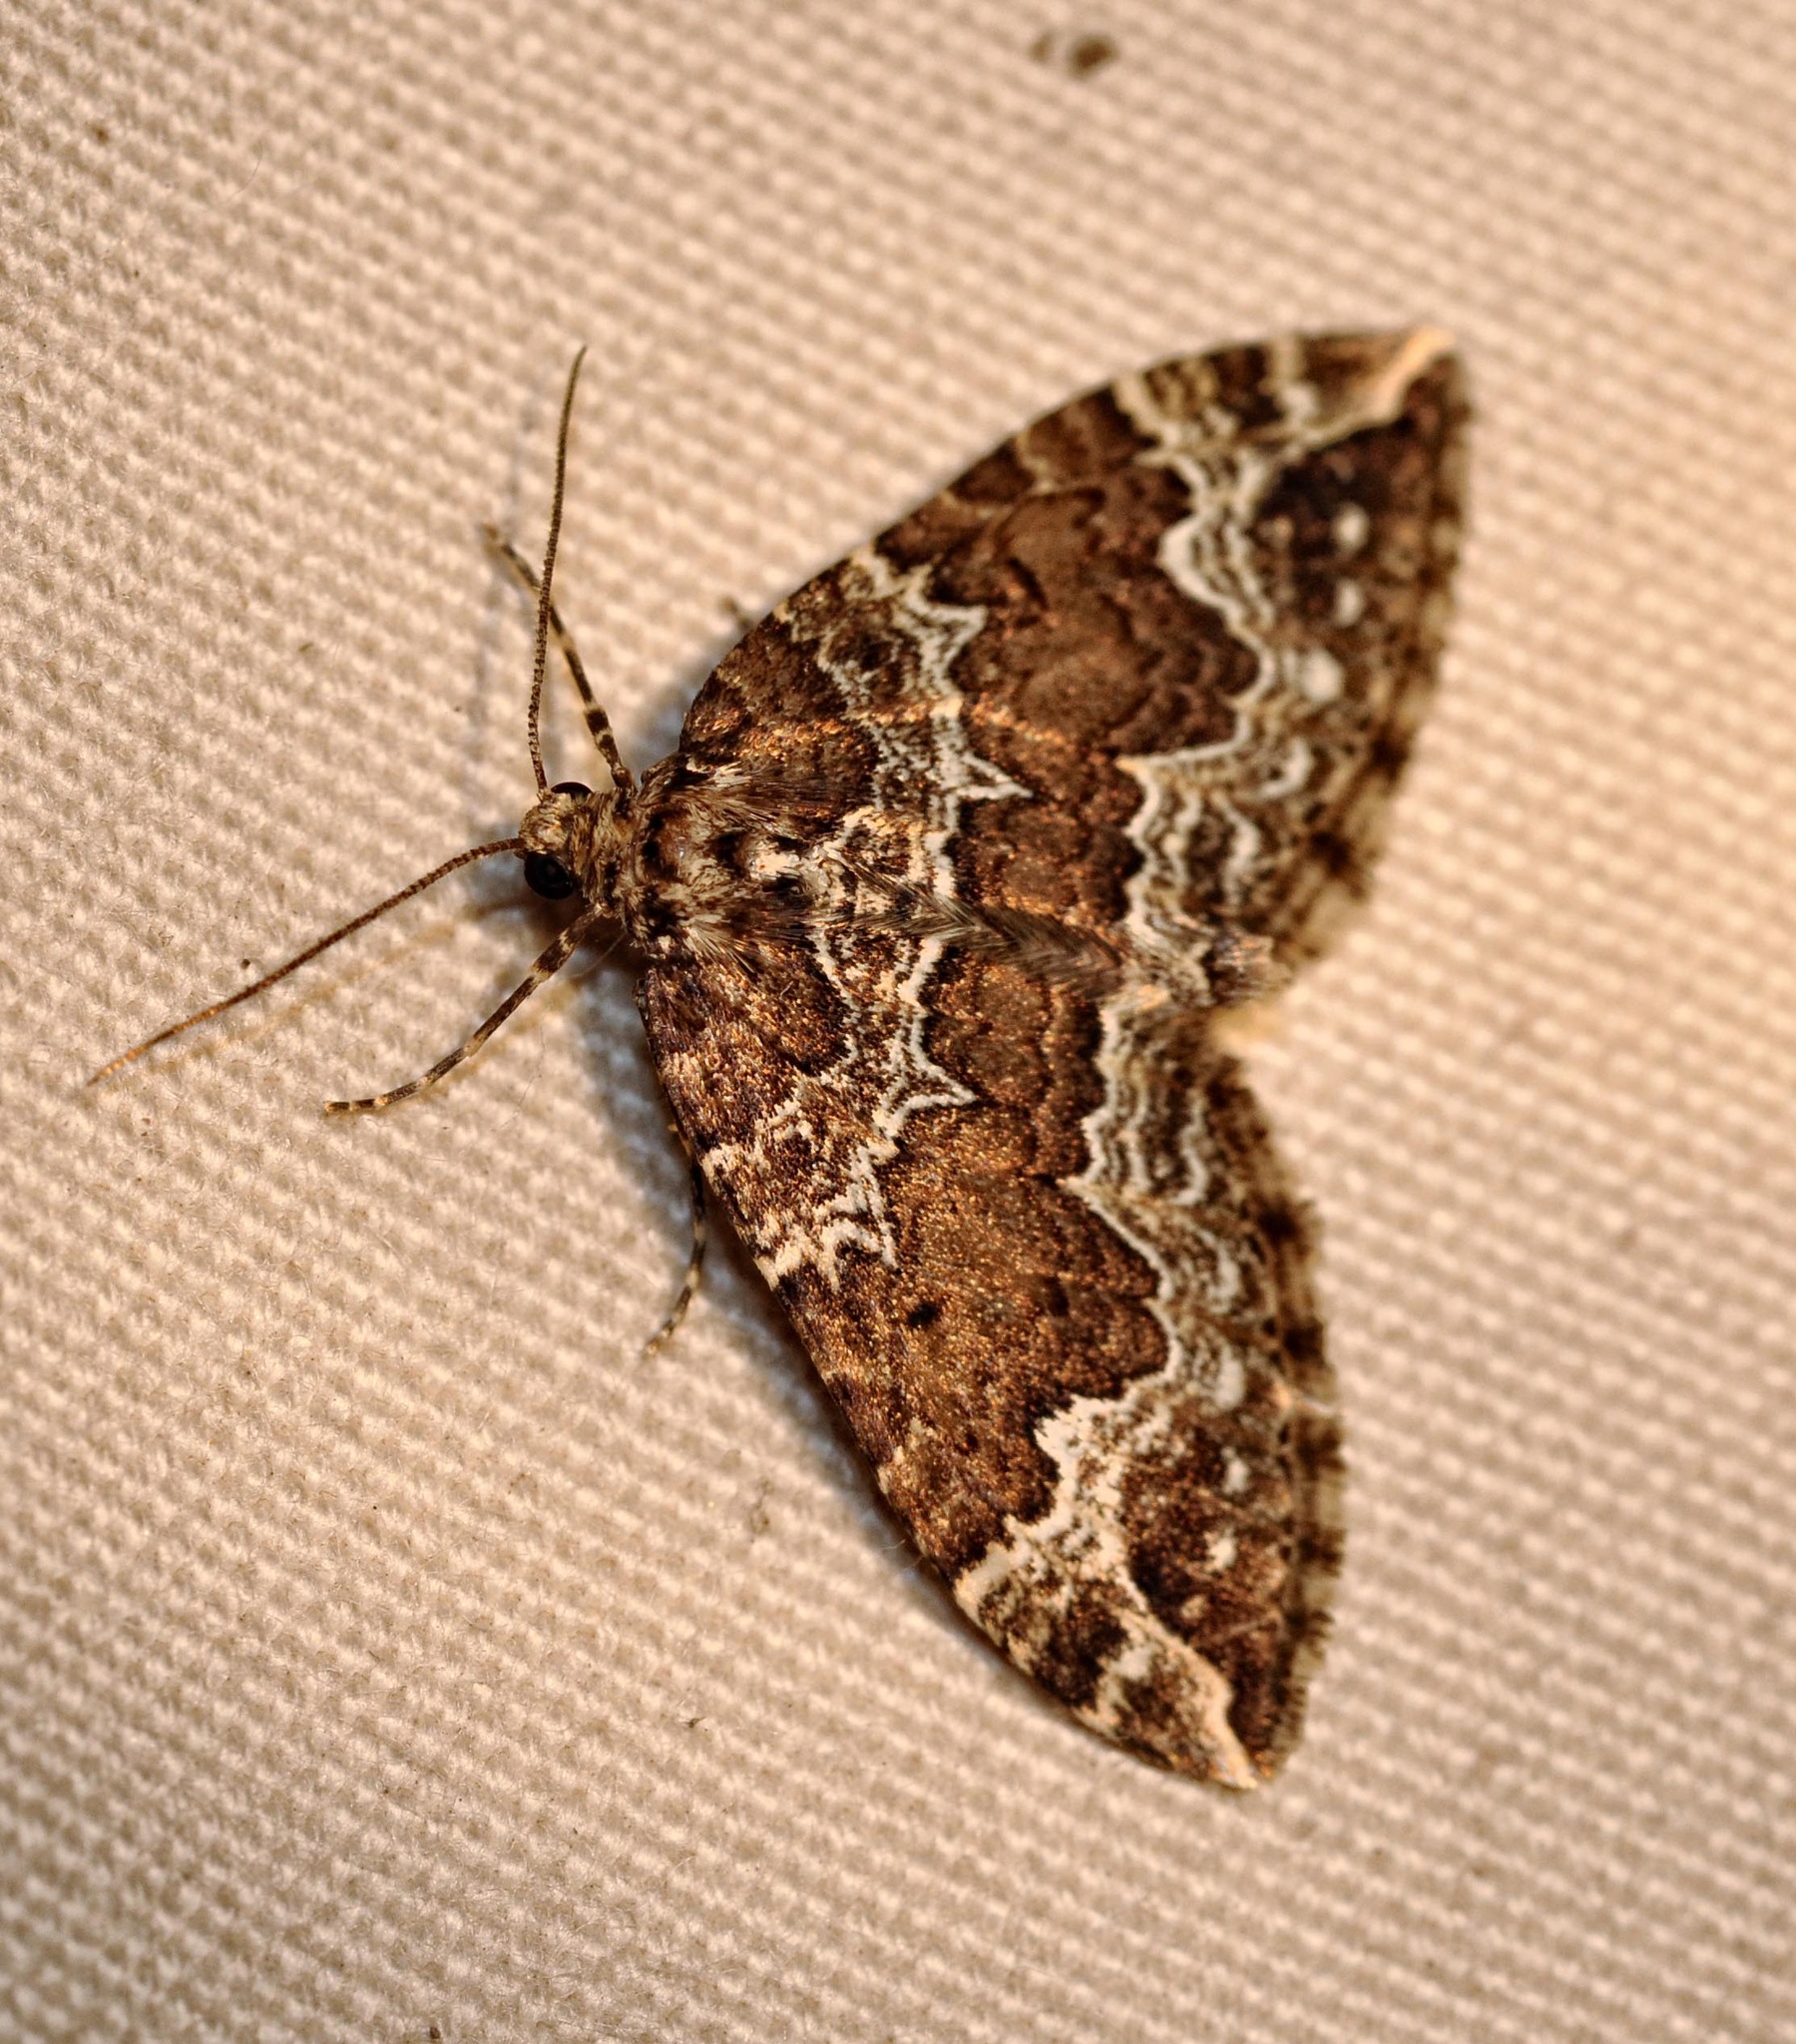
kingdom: Animalia
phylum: Arthropoda
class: Insecta
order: Lepidoptera
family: Geometridae
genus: Lampropteryx
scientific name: Lampropteryx suffumata
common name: Water carpet
